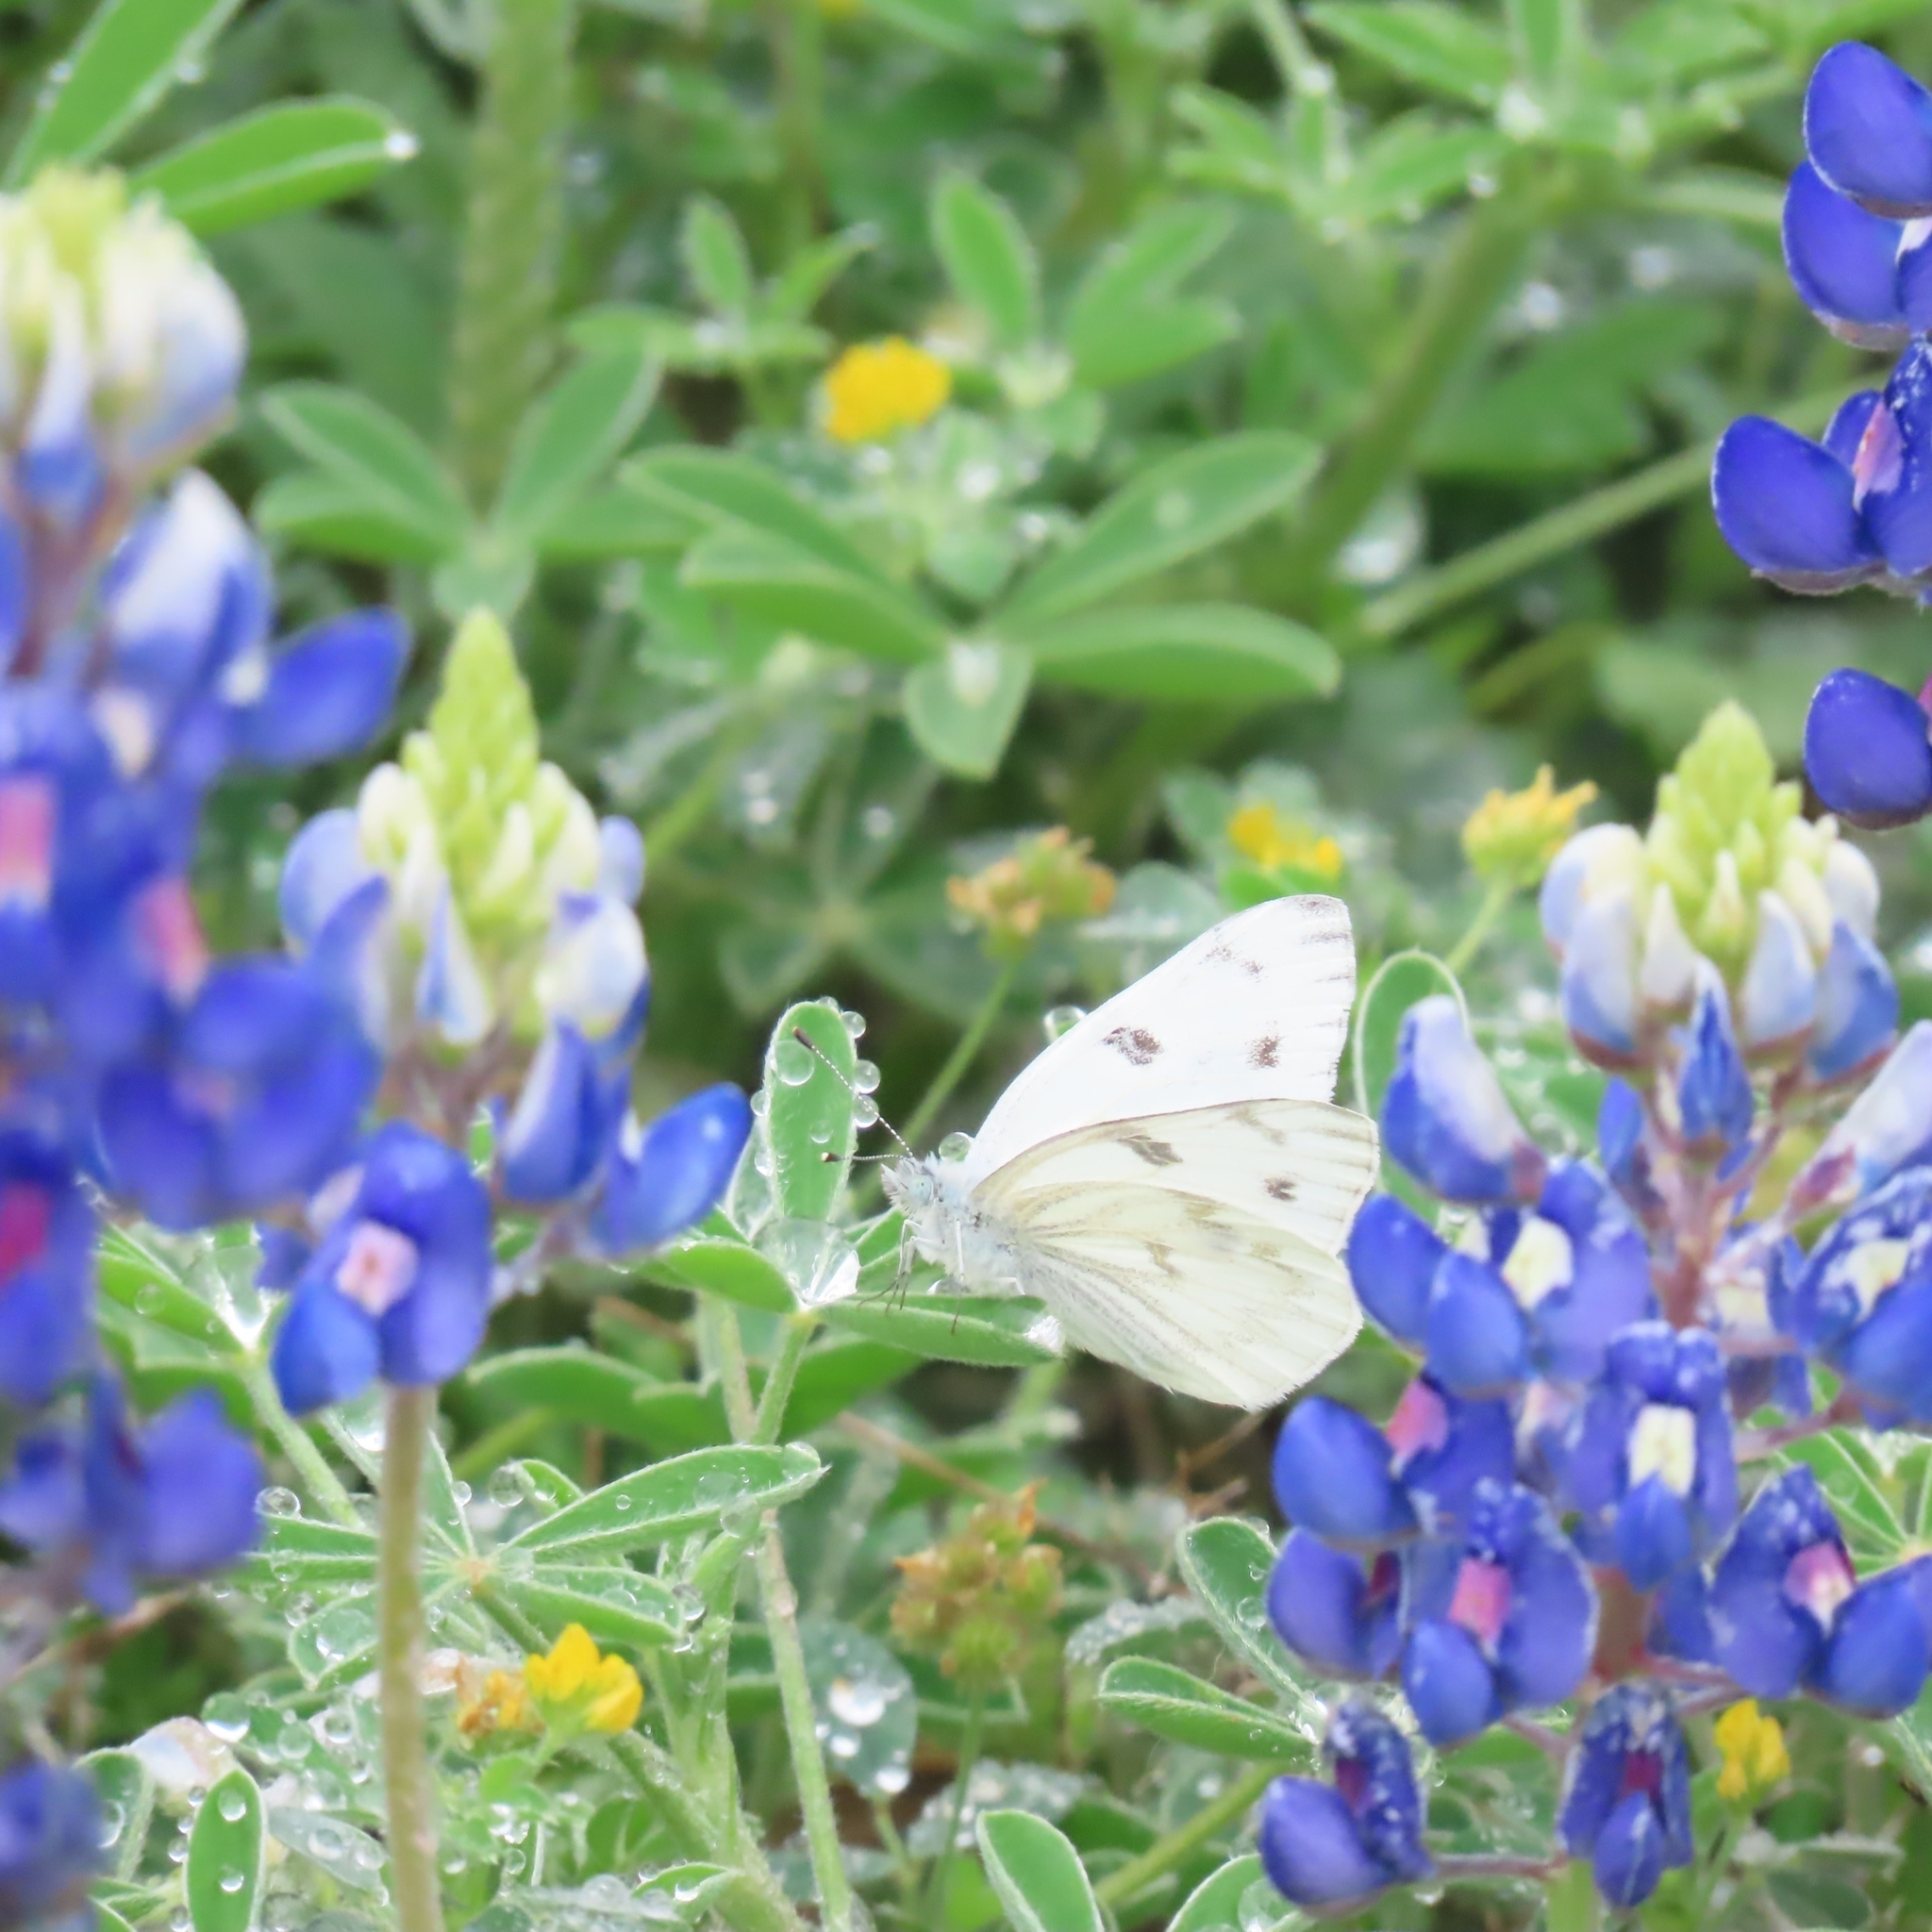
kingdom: Animalia
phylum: Arthropoda
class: Insecta
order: Lepidoptera
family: Pieridae
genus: Pontia
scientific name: Pontia protodice
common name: Checkered white
